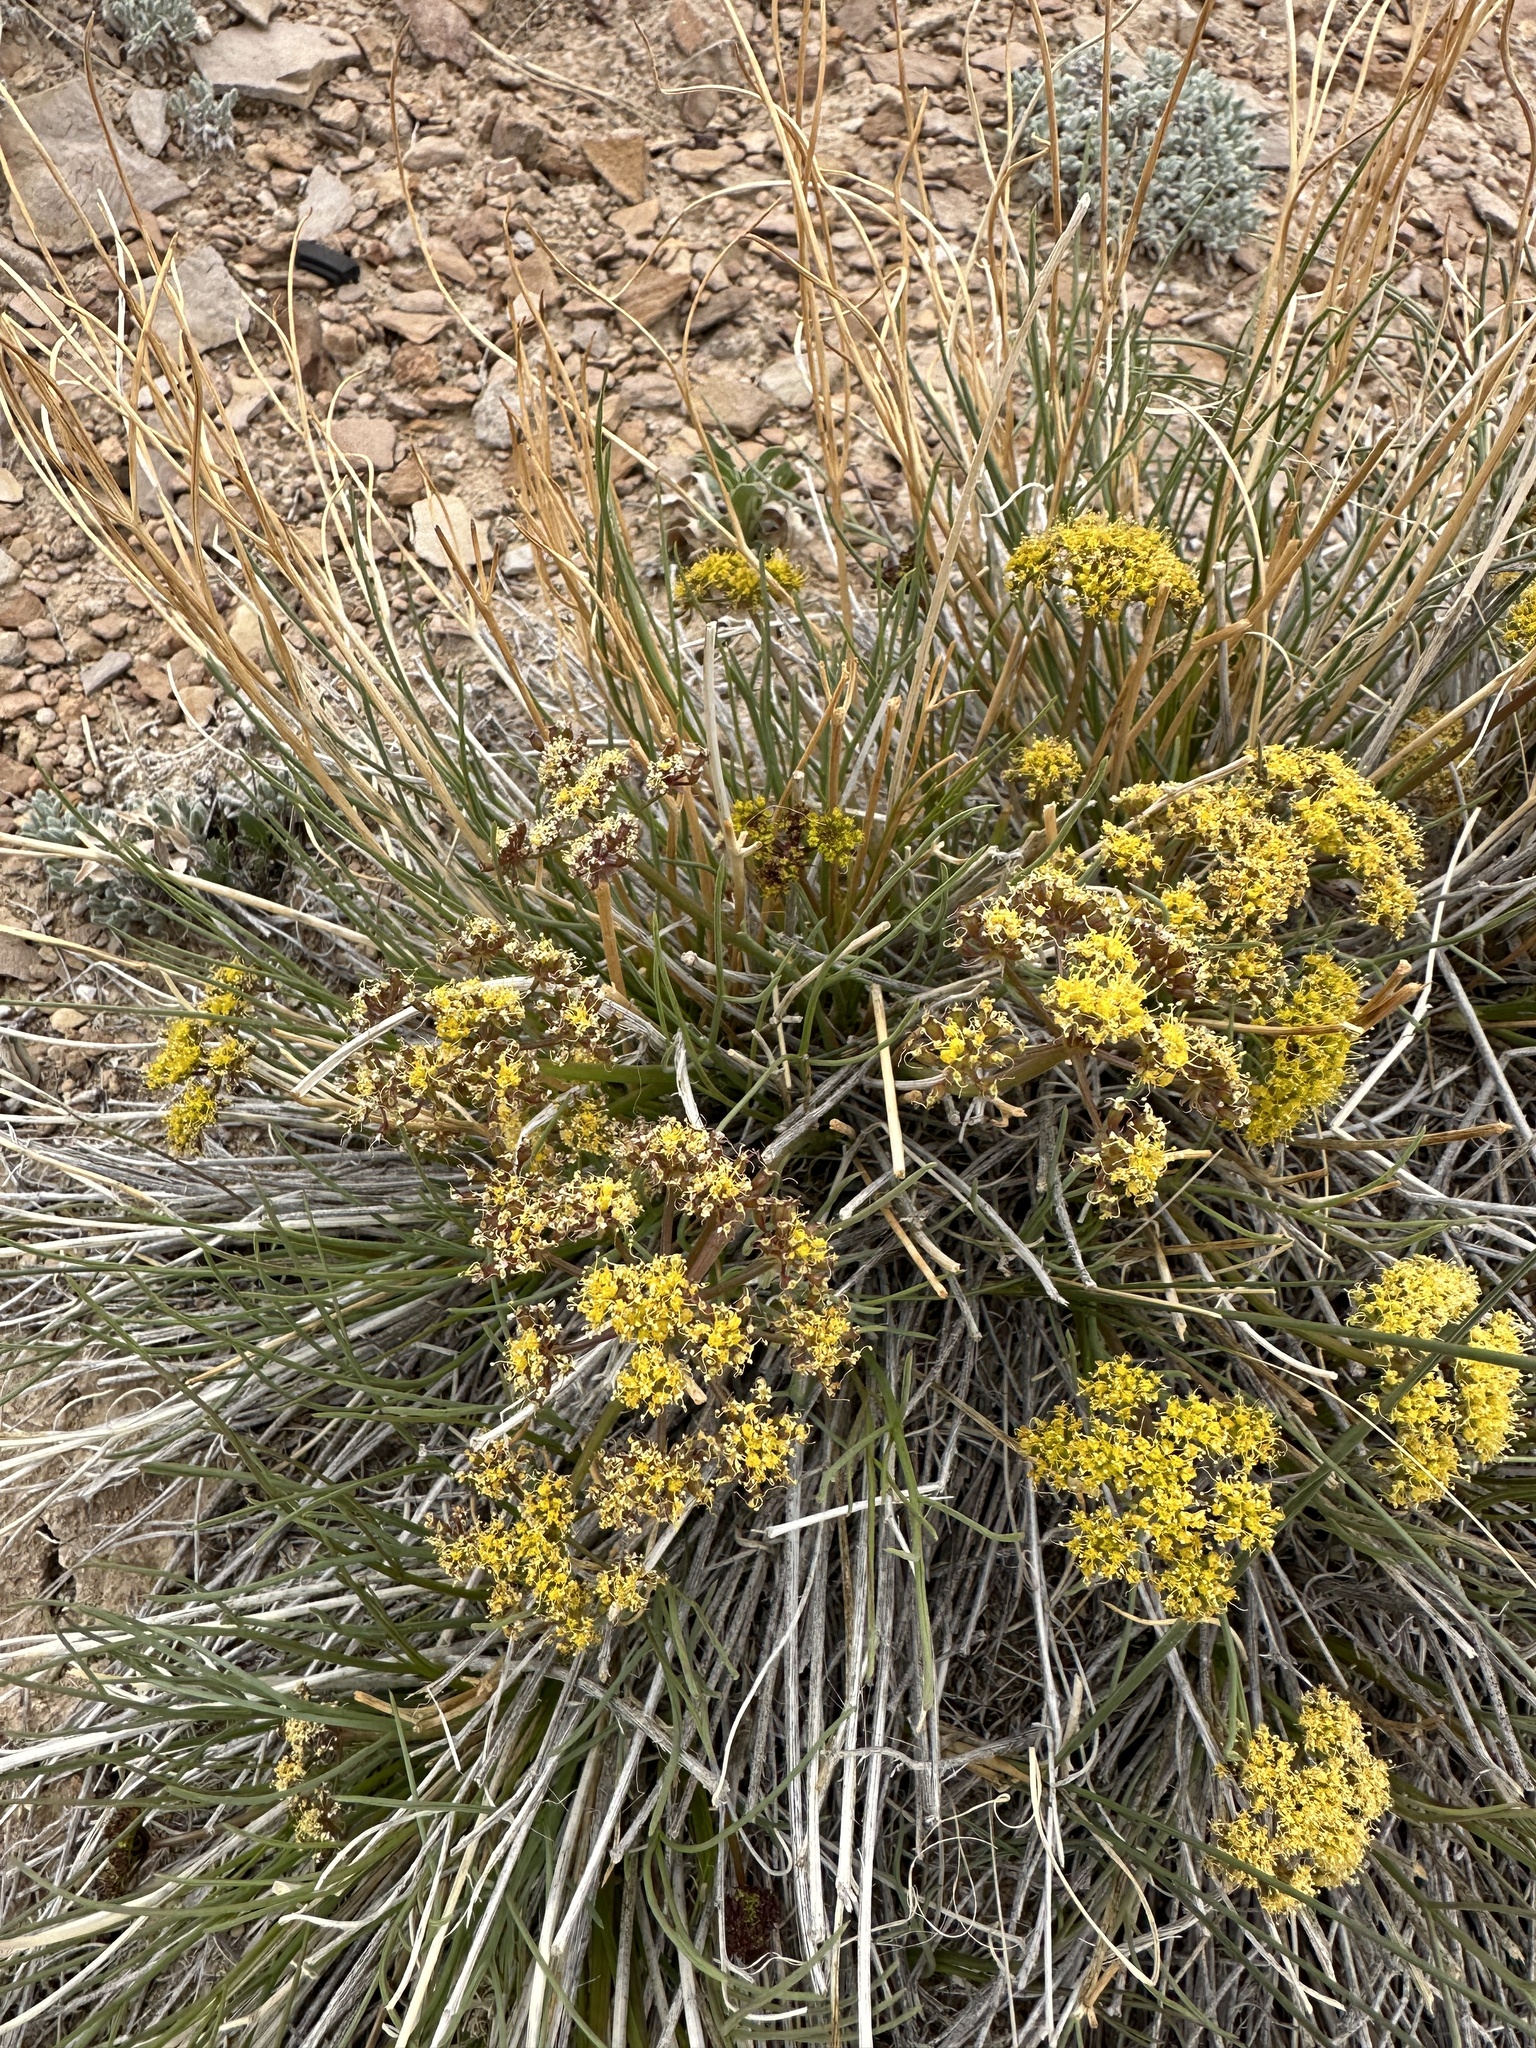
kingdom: Plantae
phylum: Tracheophyta
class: Magnoliopsida
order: Apiales
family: Apiaceae
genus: Lomatium
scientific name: Lomatium junceum
